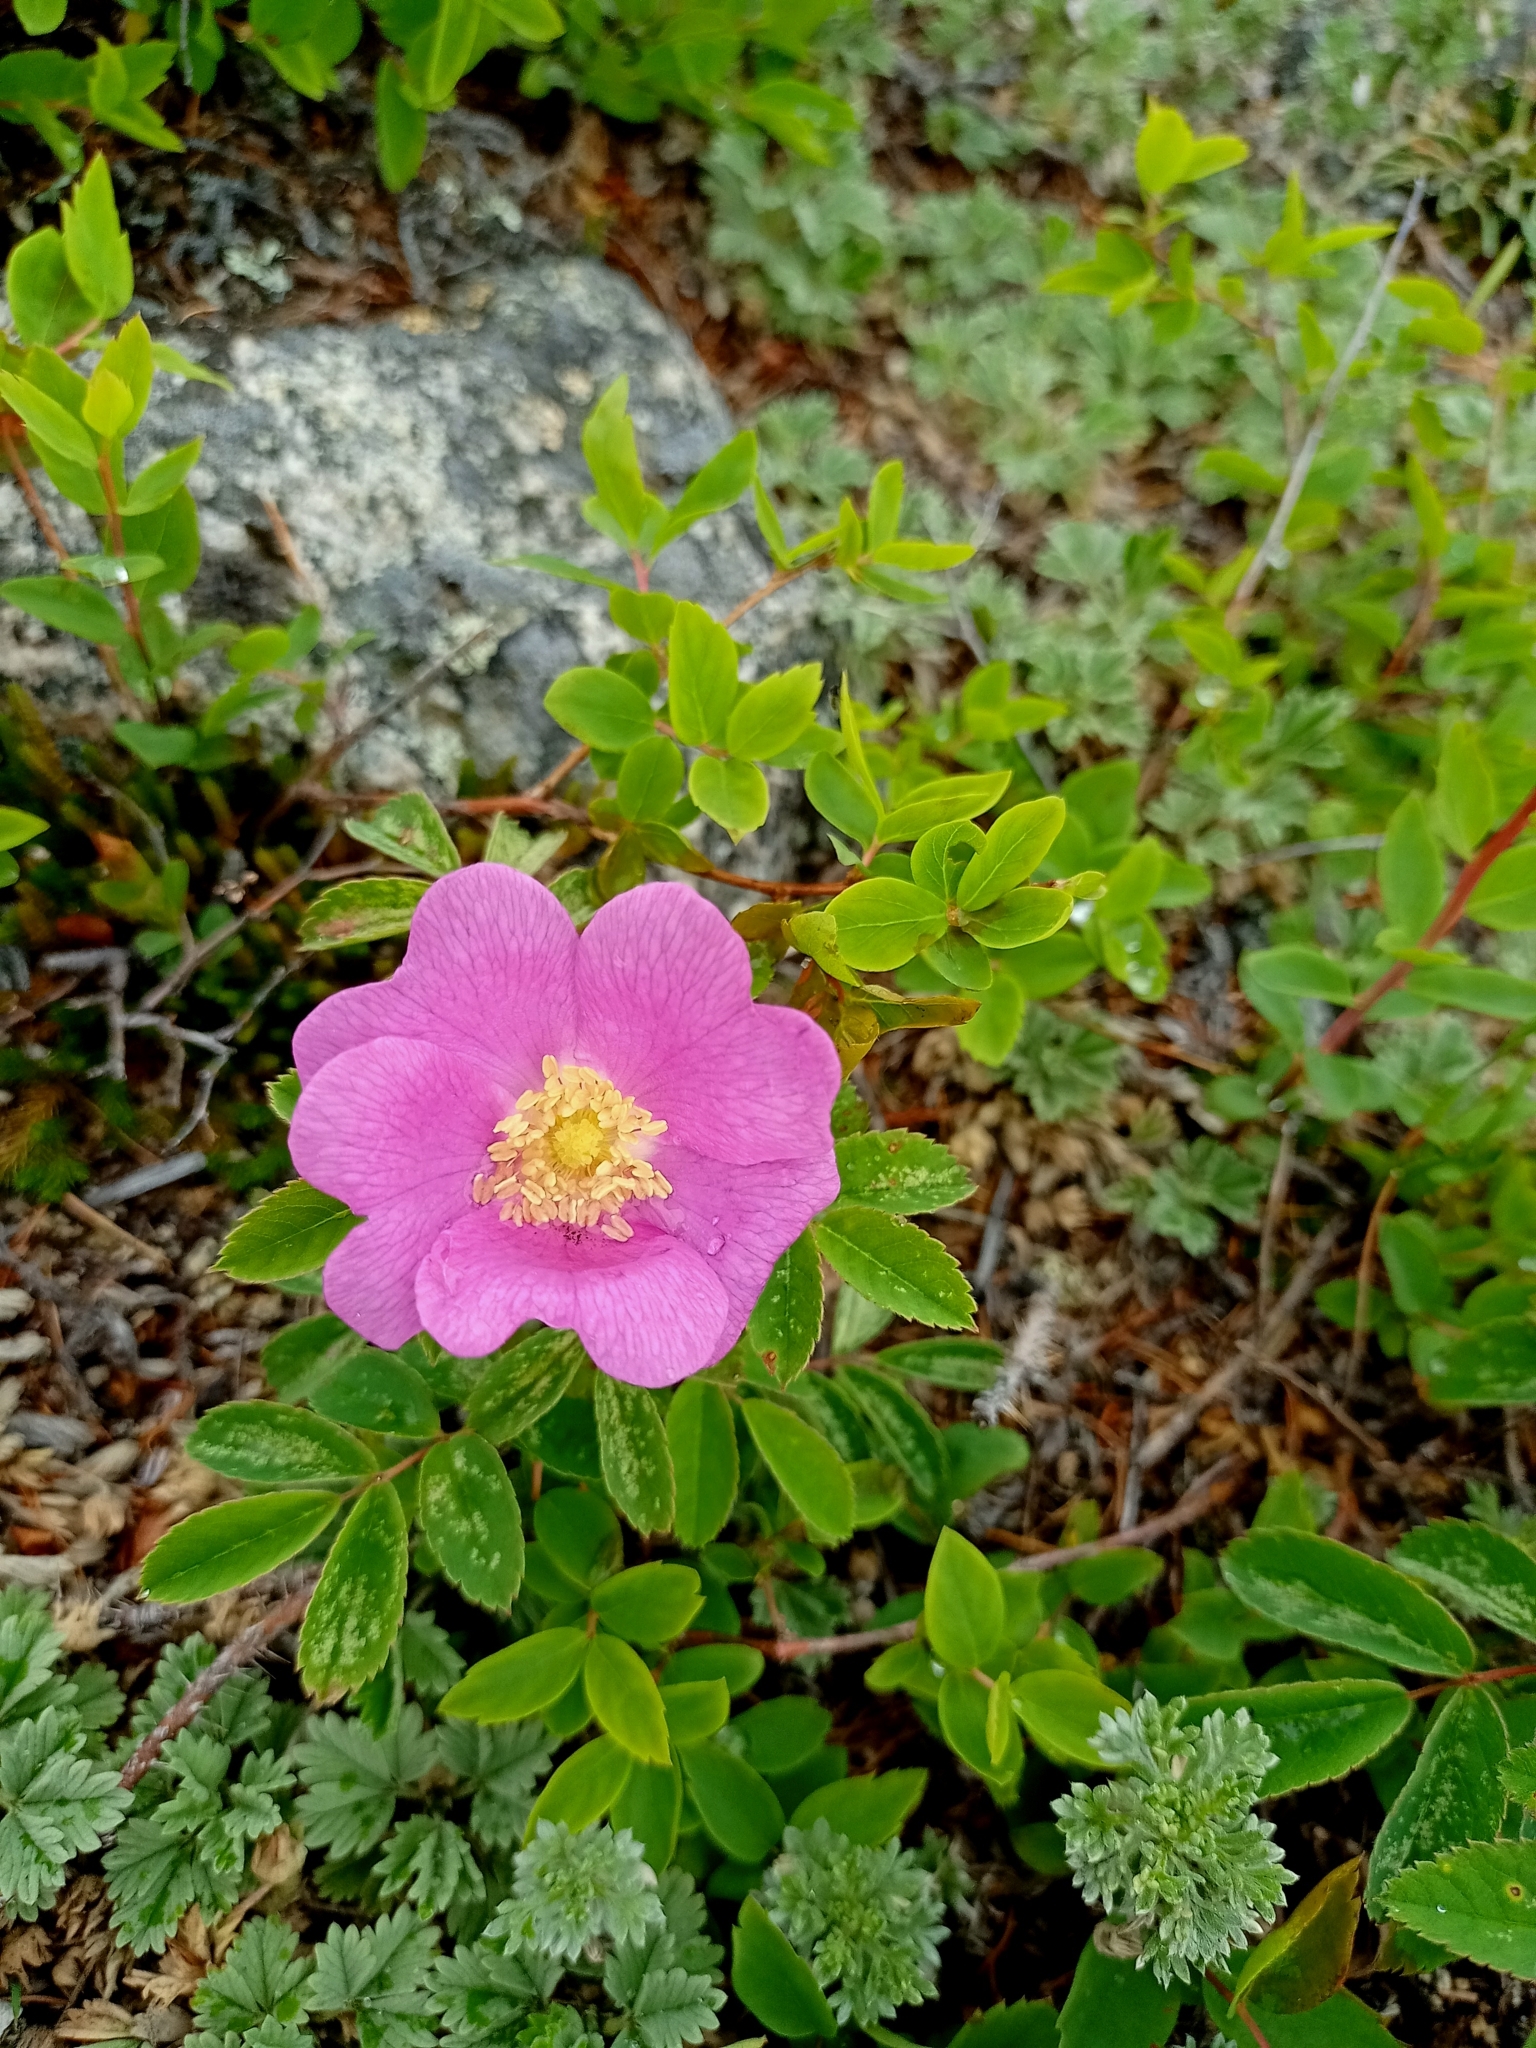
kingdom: Plantae
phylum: Tracheophyta
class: Magnoliopsida
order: Rosales
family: Rosaceae
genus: Rosa
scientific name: Rosa acicularis
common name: Prickly rose
